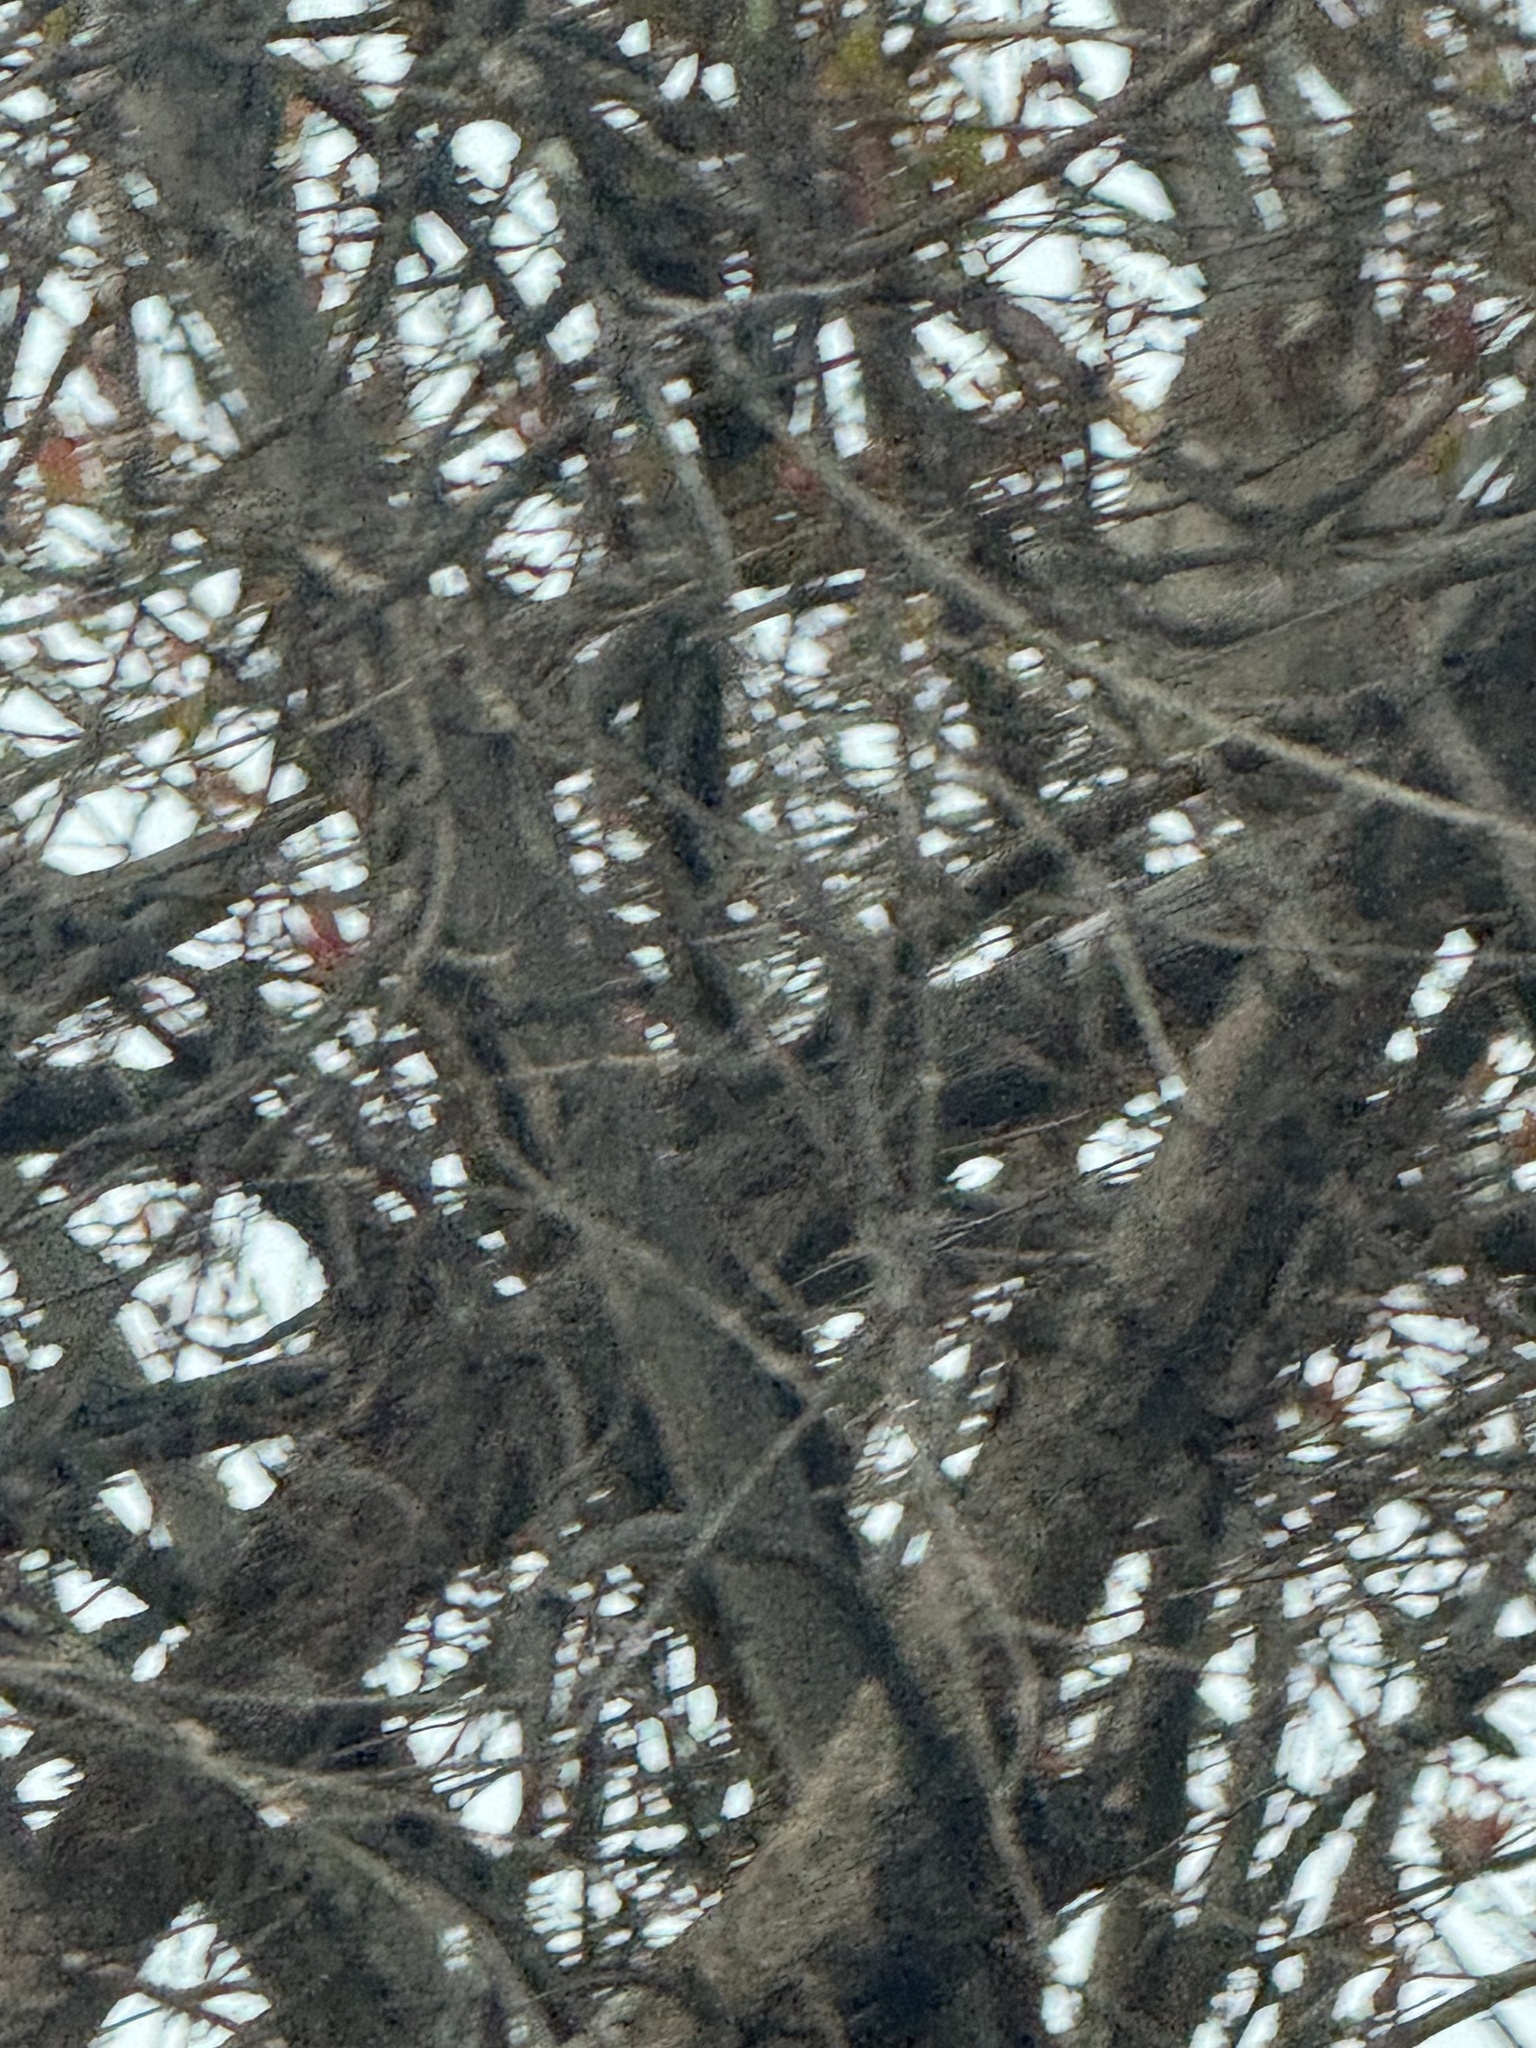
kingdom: Animalia
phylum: Chordata
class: Aves
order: Passeriformes
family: Passerellidae
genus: Melozone
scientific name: Melozone crissalis
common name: California towhee
